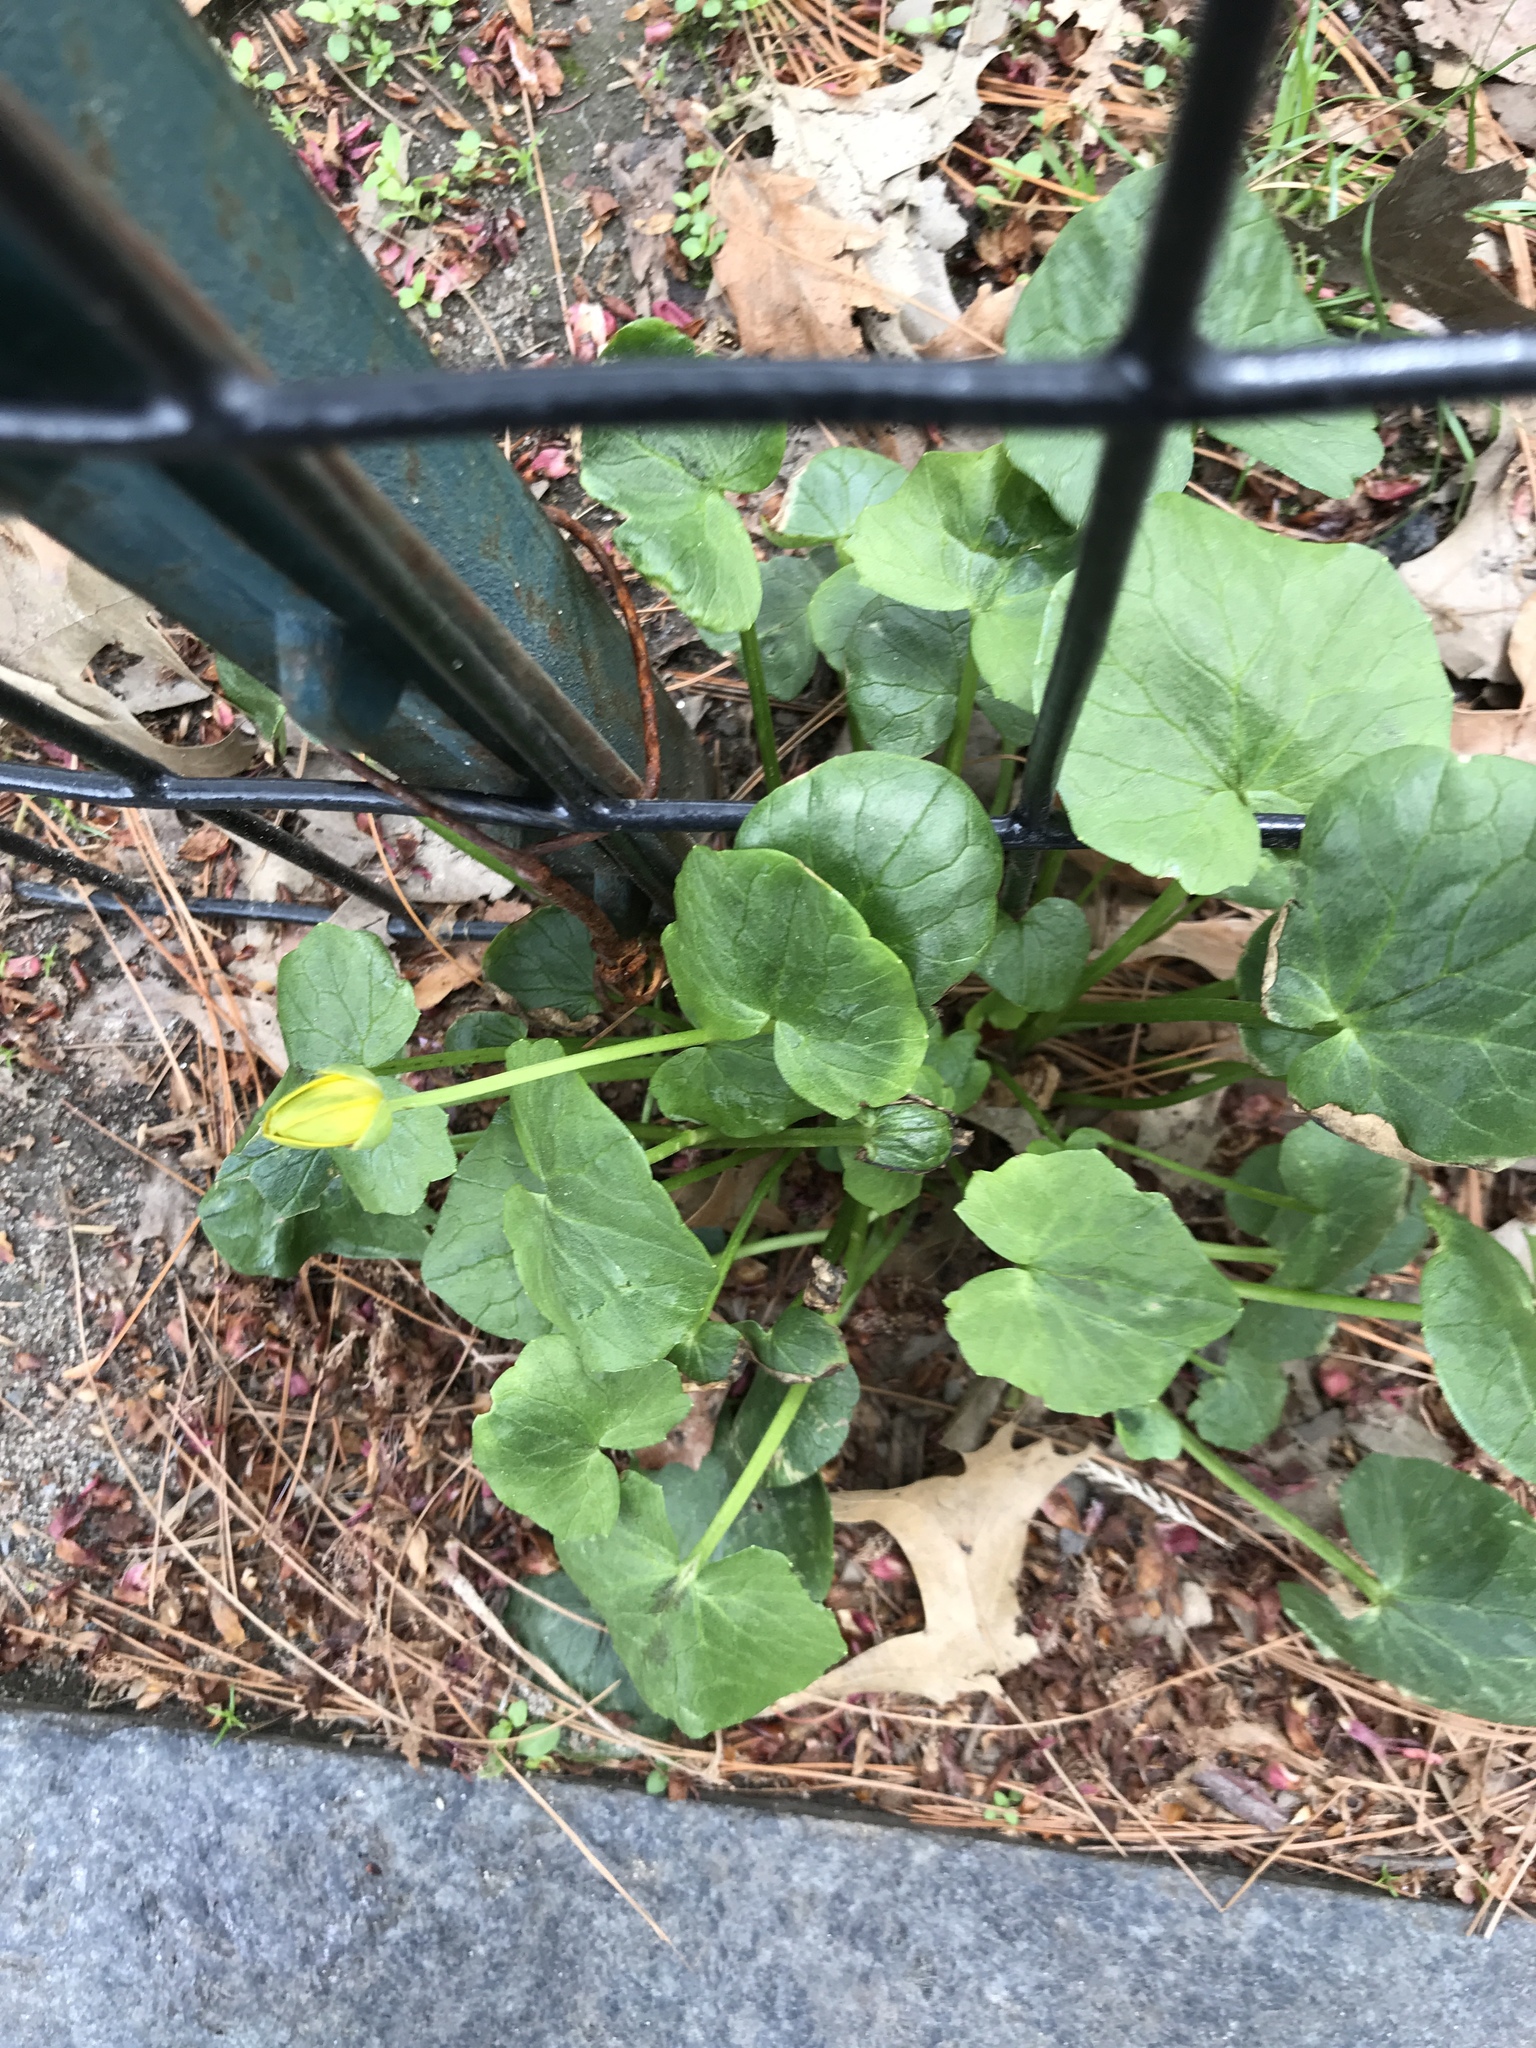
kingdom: Plantae
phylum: Tracheophyta
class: Magnoliopsida
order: Ranunculales
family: Ranunculaceae
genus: Ficaria
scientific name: Ficaria verna
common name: Lesser celandine
